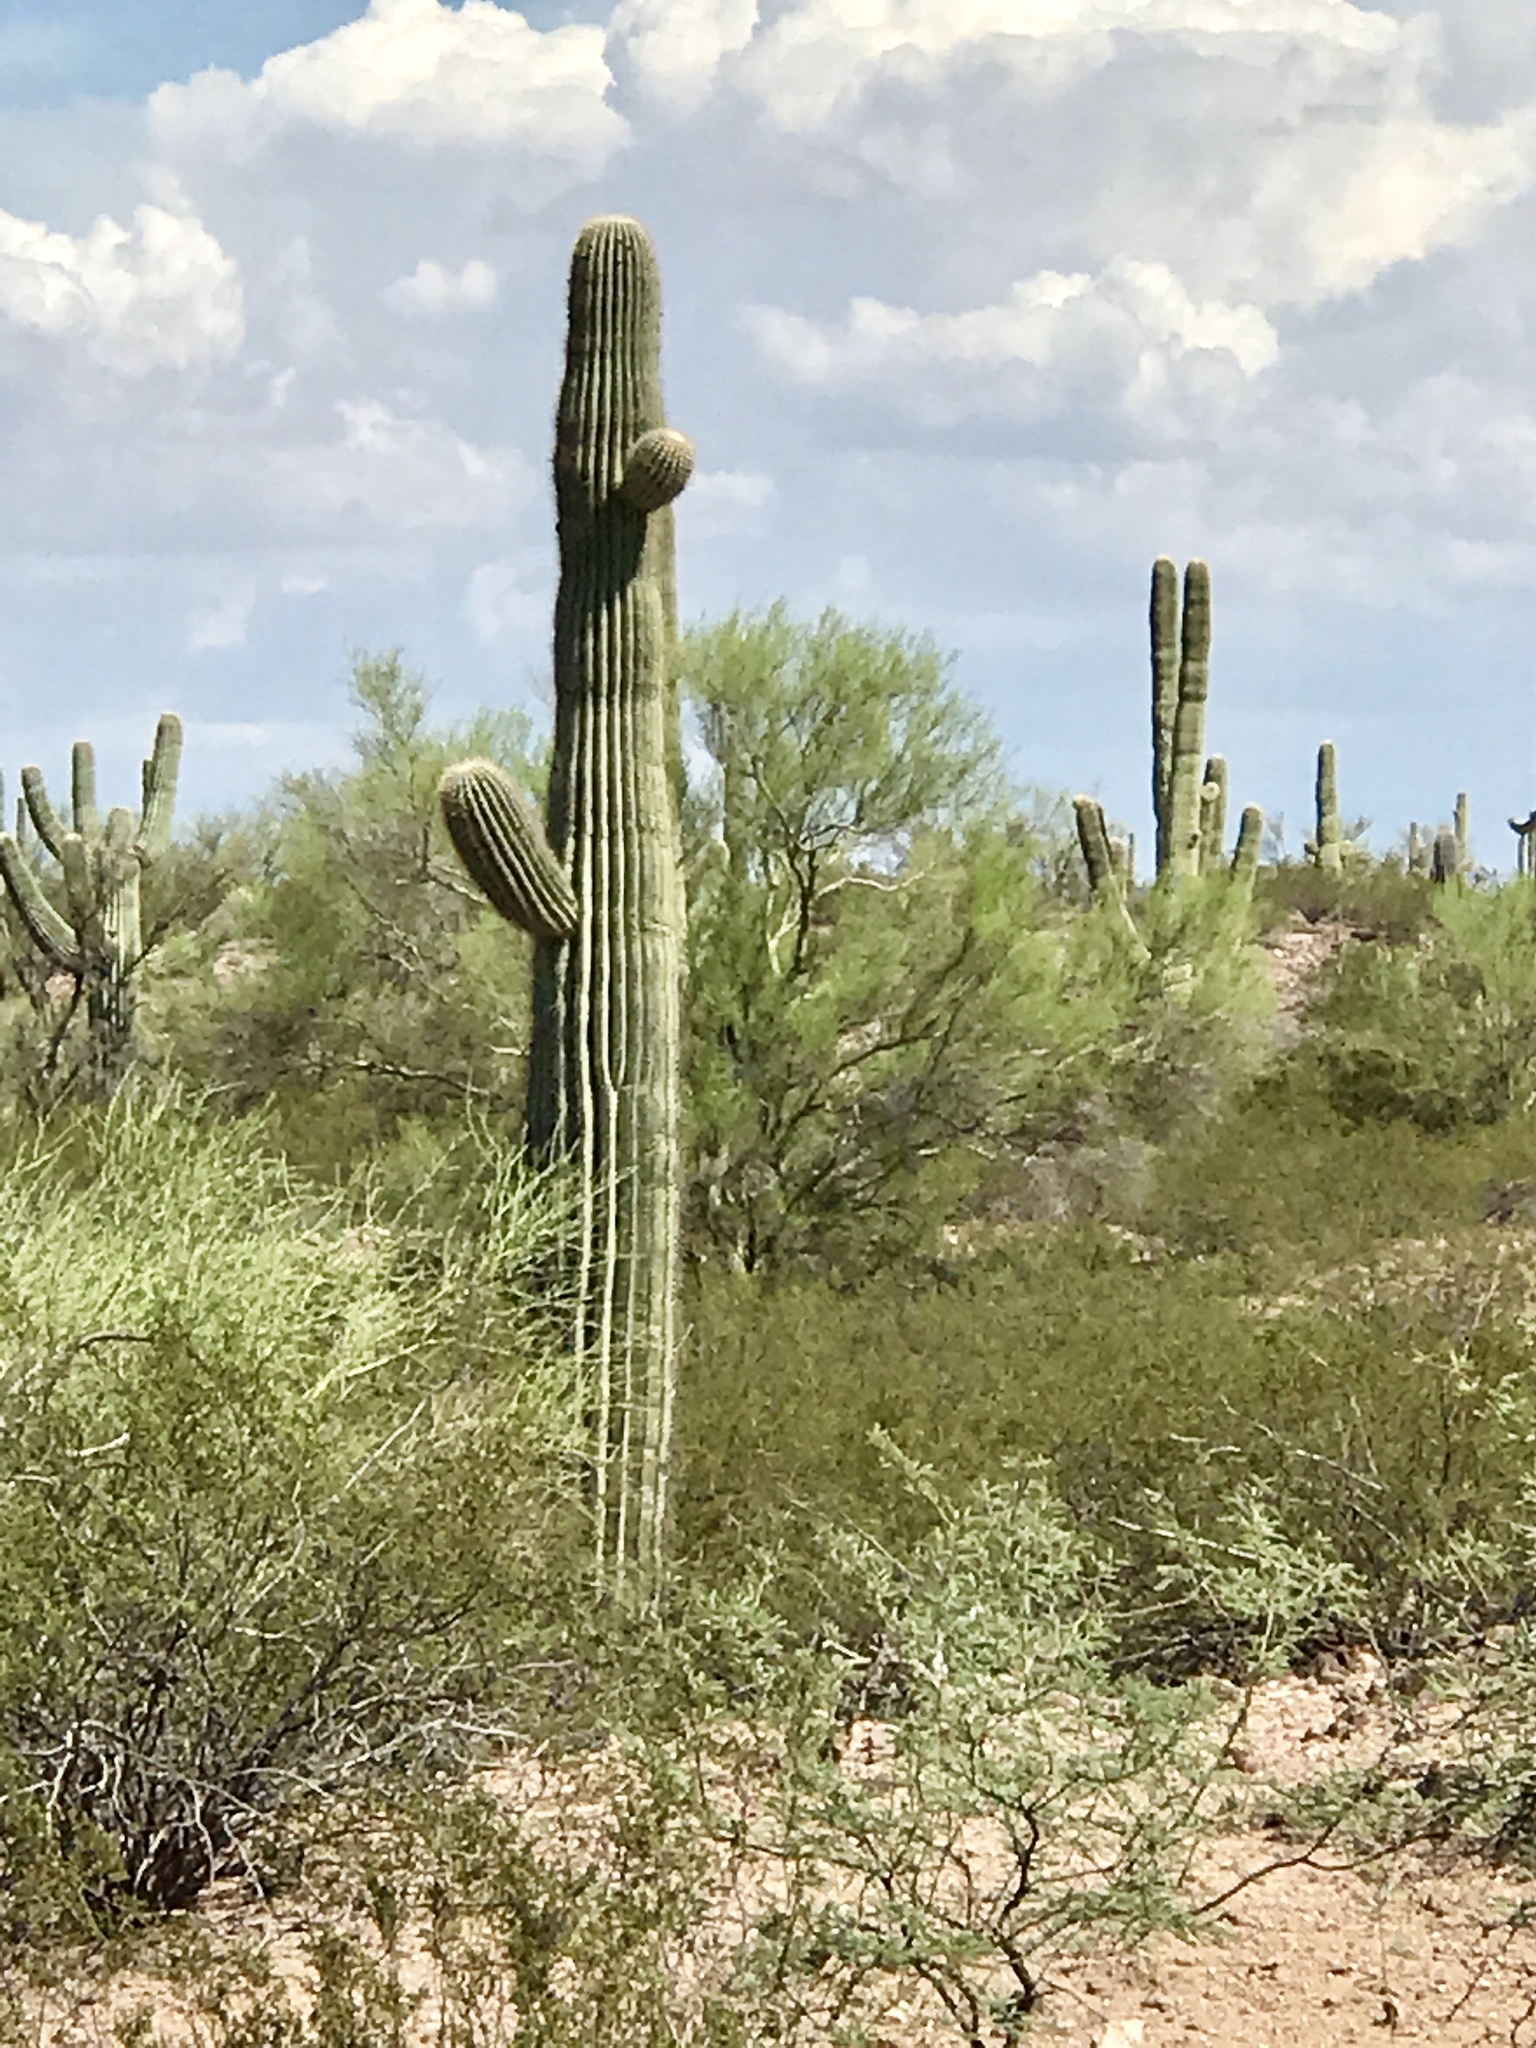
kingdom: Plantae
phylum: Tracheophyta
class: Magnoliopsida
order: Caryophyllales
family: Cactaceae
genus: Carnegiea
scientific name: Carnegiea gigantea
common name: Saguaro
